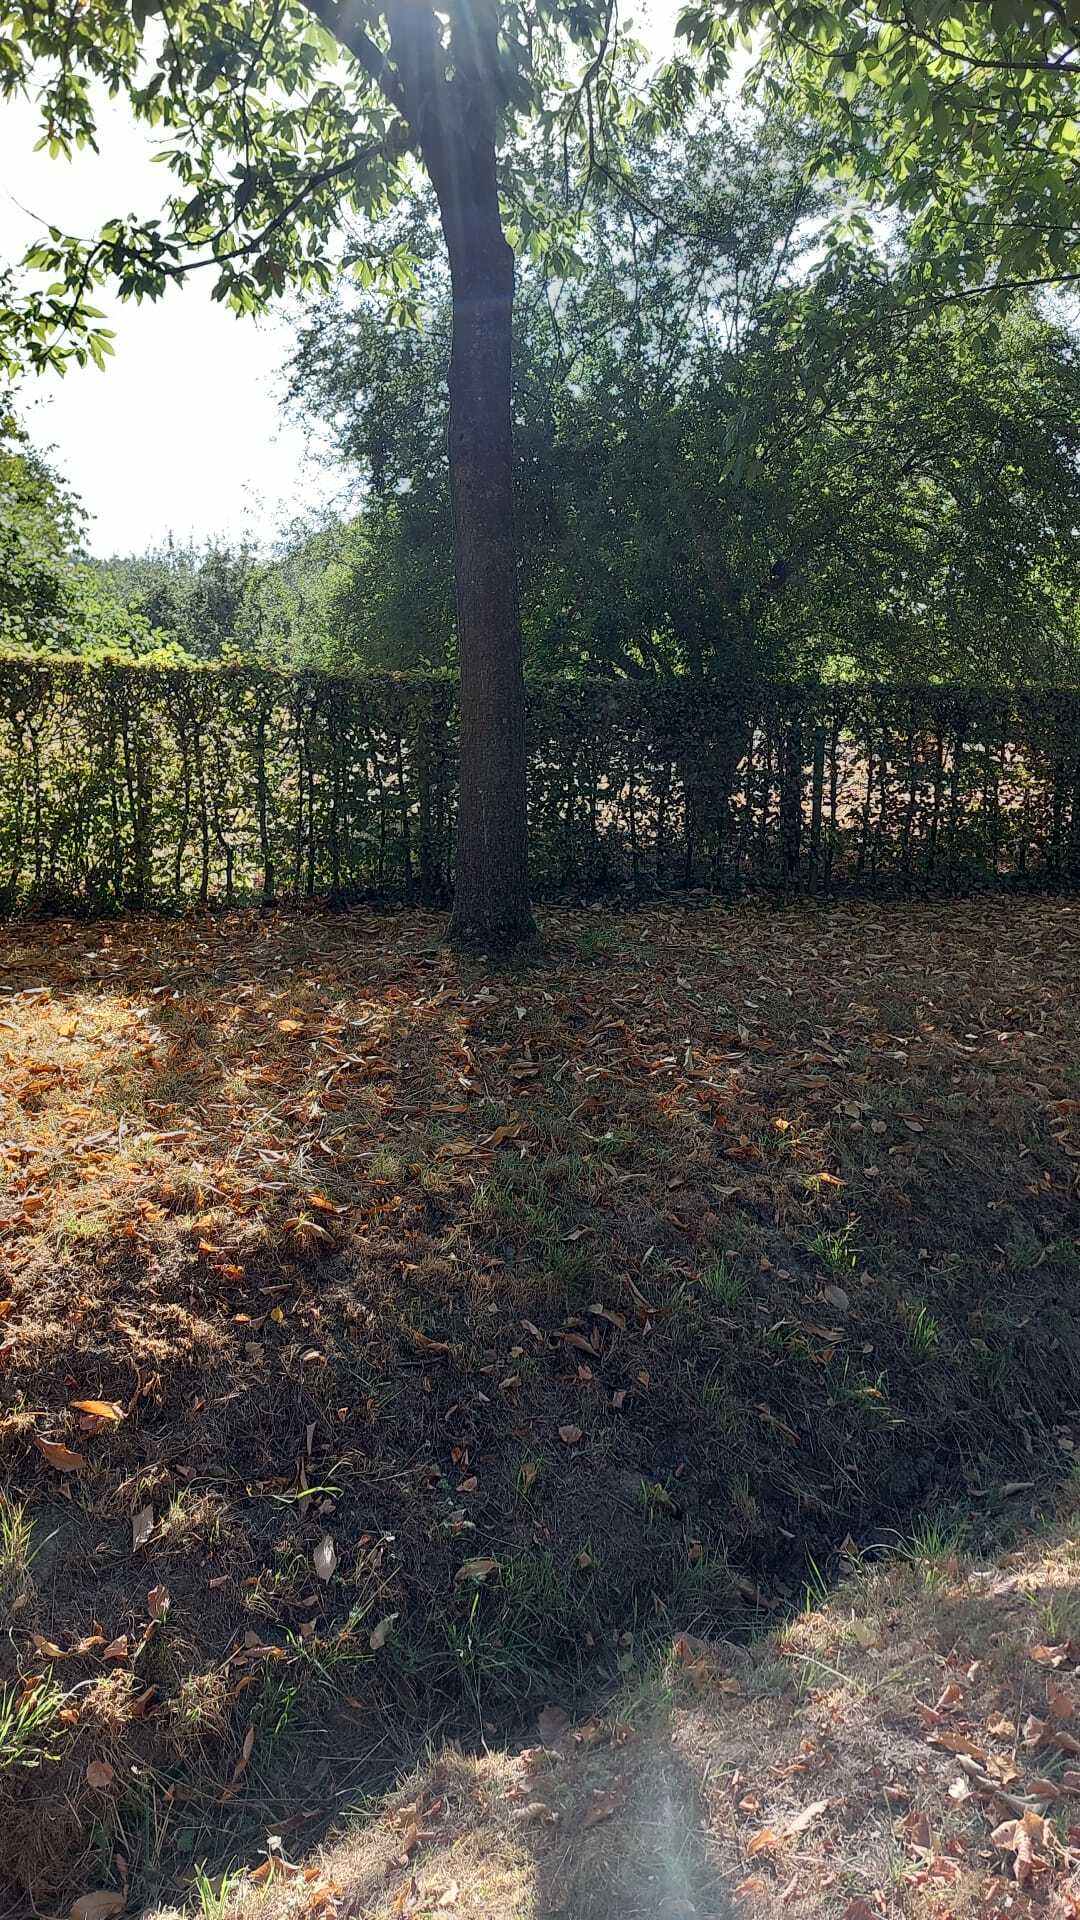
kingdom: Animalia
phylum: Arthropoda
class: Insecta
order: Hymenoptera
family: Vespidae
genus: Vespa
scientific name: Vespa velutina
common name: Asian hornet
